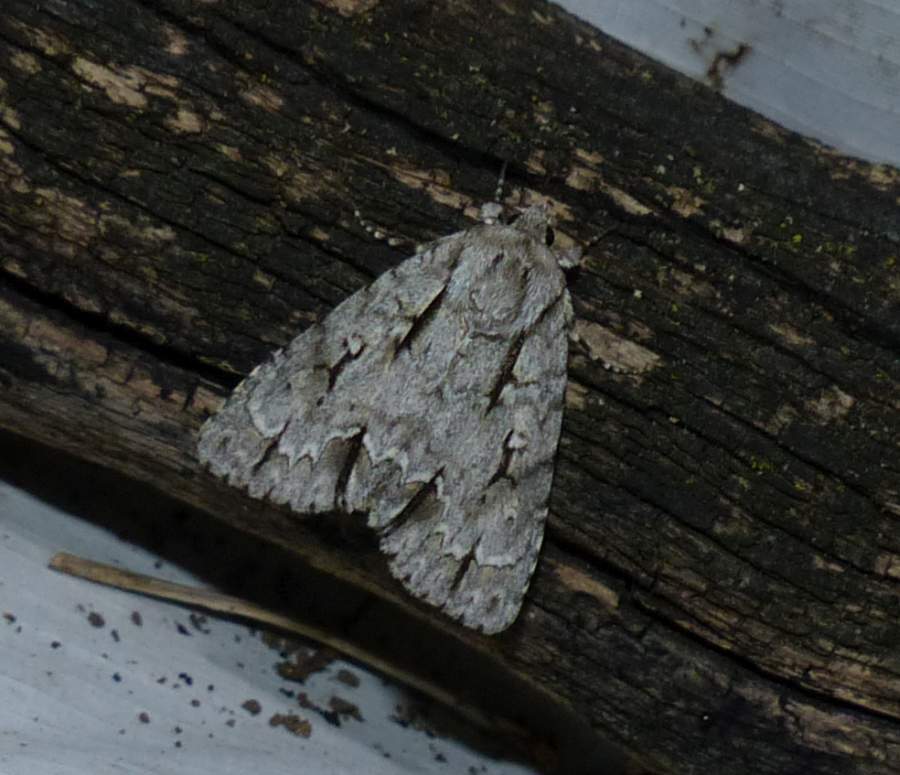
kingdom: Animalia
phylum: Arthropoda
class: Insecta
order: Lepidoptera
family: Noctuidae
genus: Acronicta
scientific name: Acronicta hasta
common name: Cherry dagger
